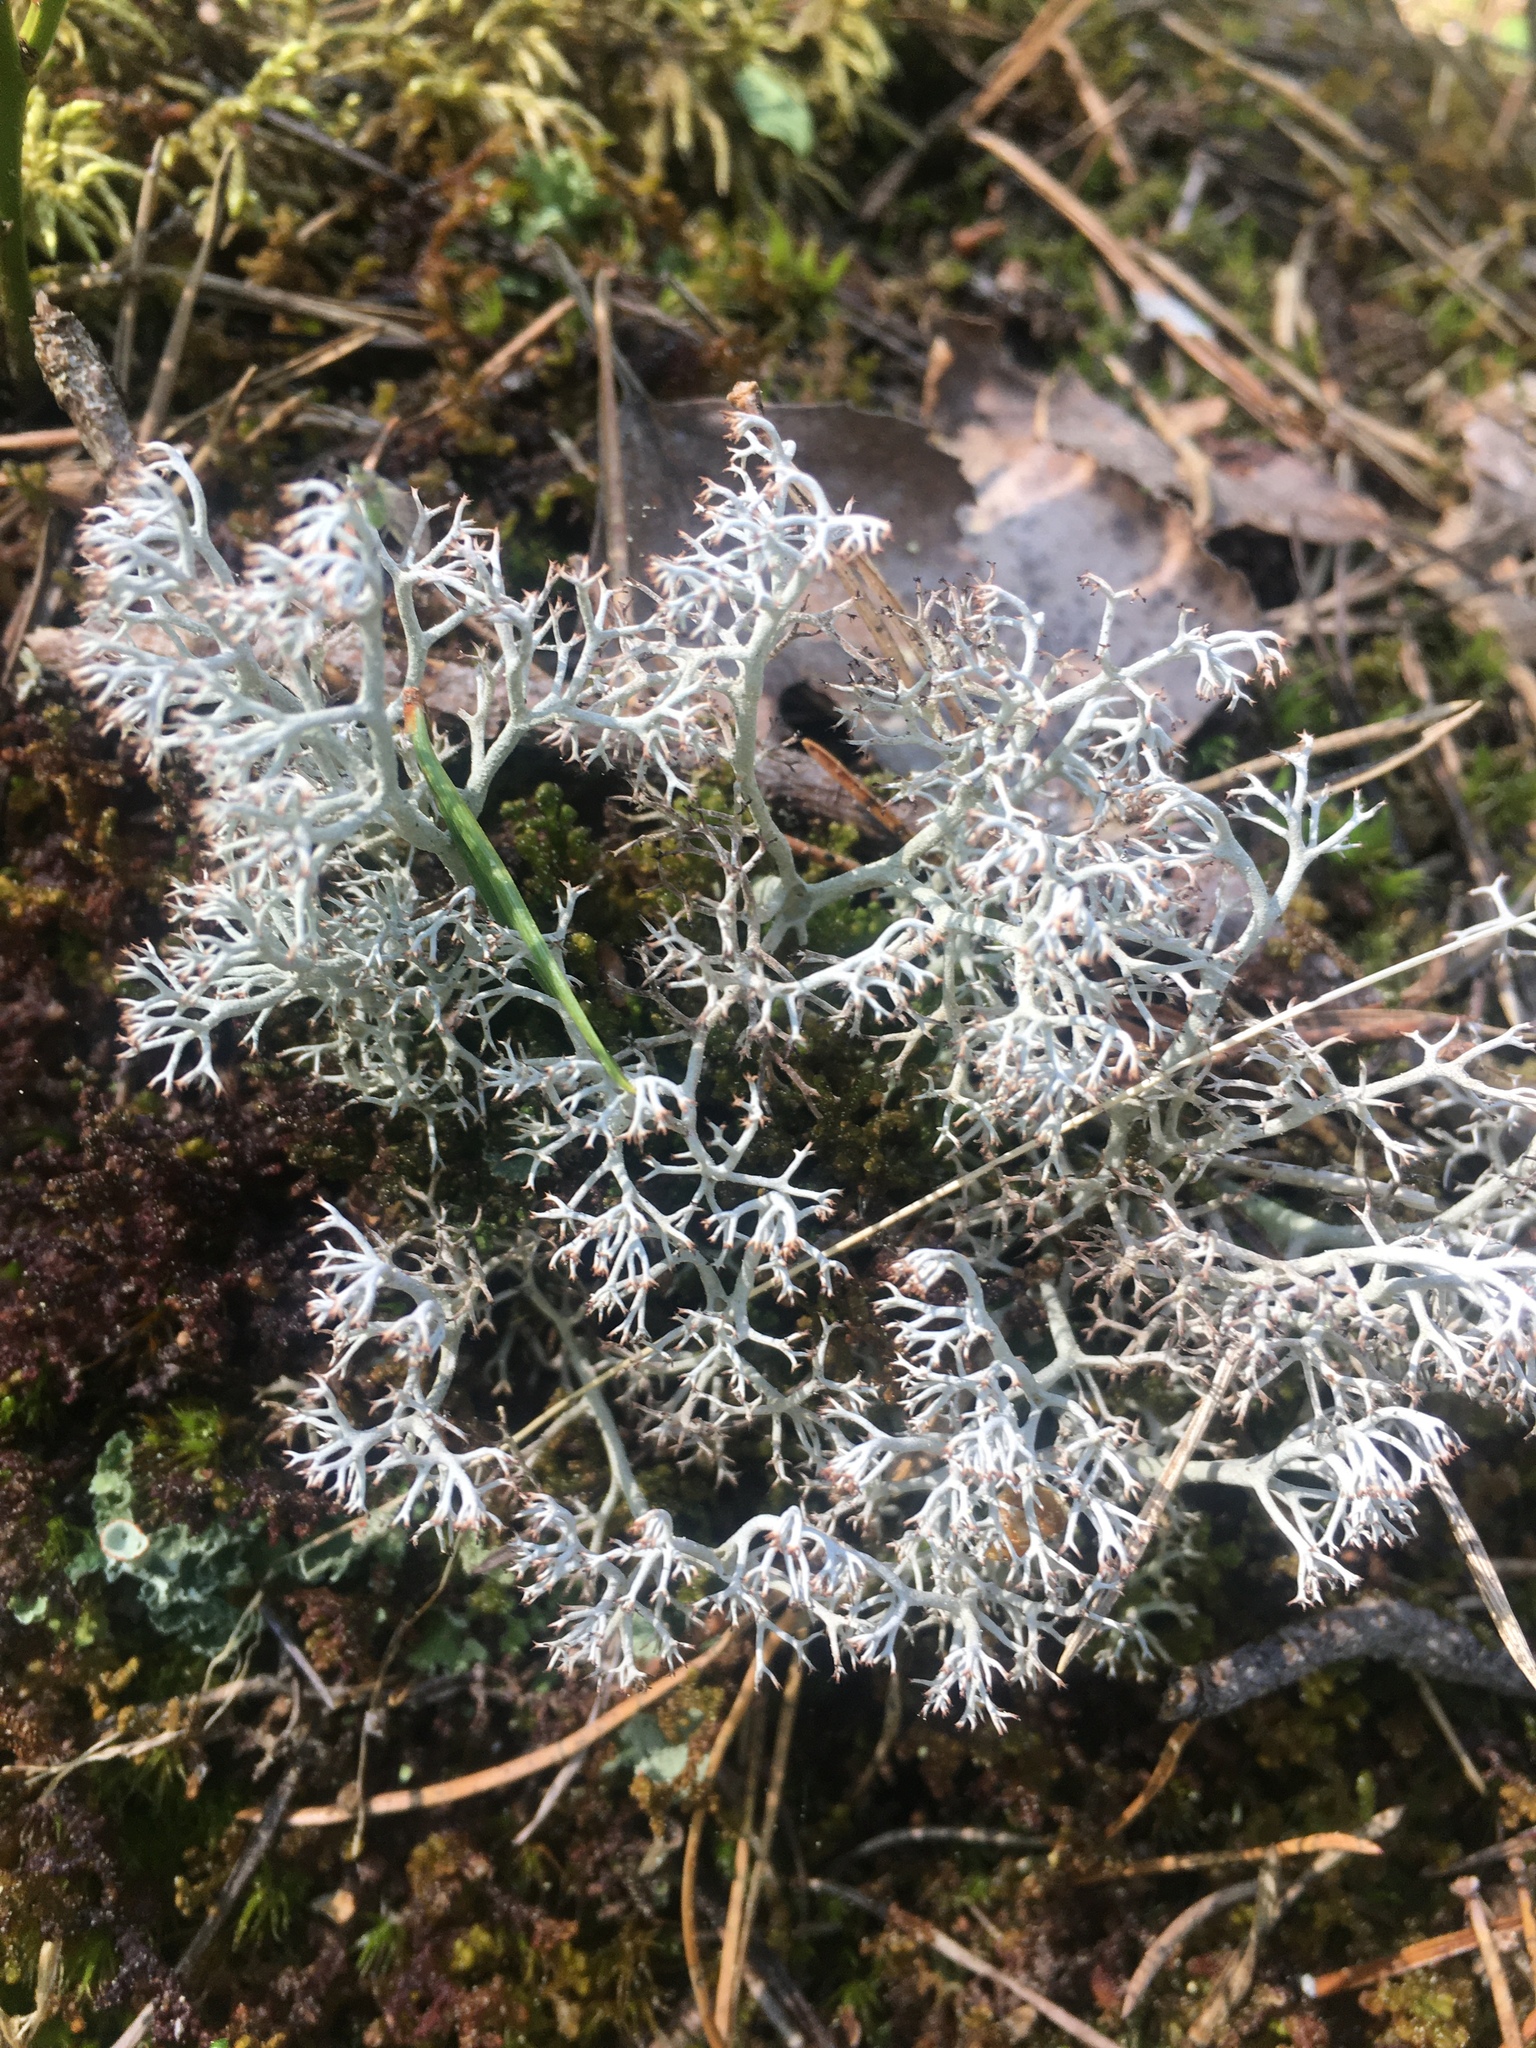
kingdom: Fungi
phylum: Ascomycota
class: Lecanoromycetes
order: Lecanorales
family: Cladoniaceae
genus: Cladonia
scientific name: Cladonia rangiferina
